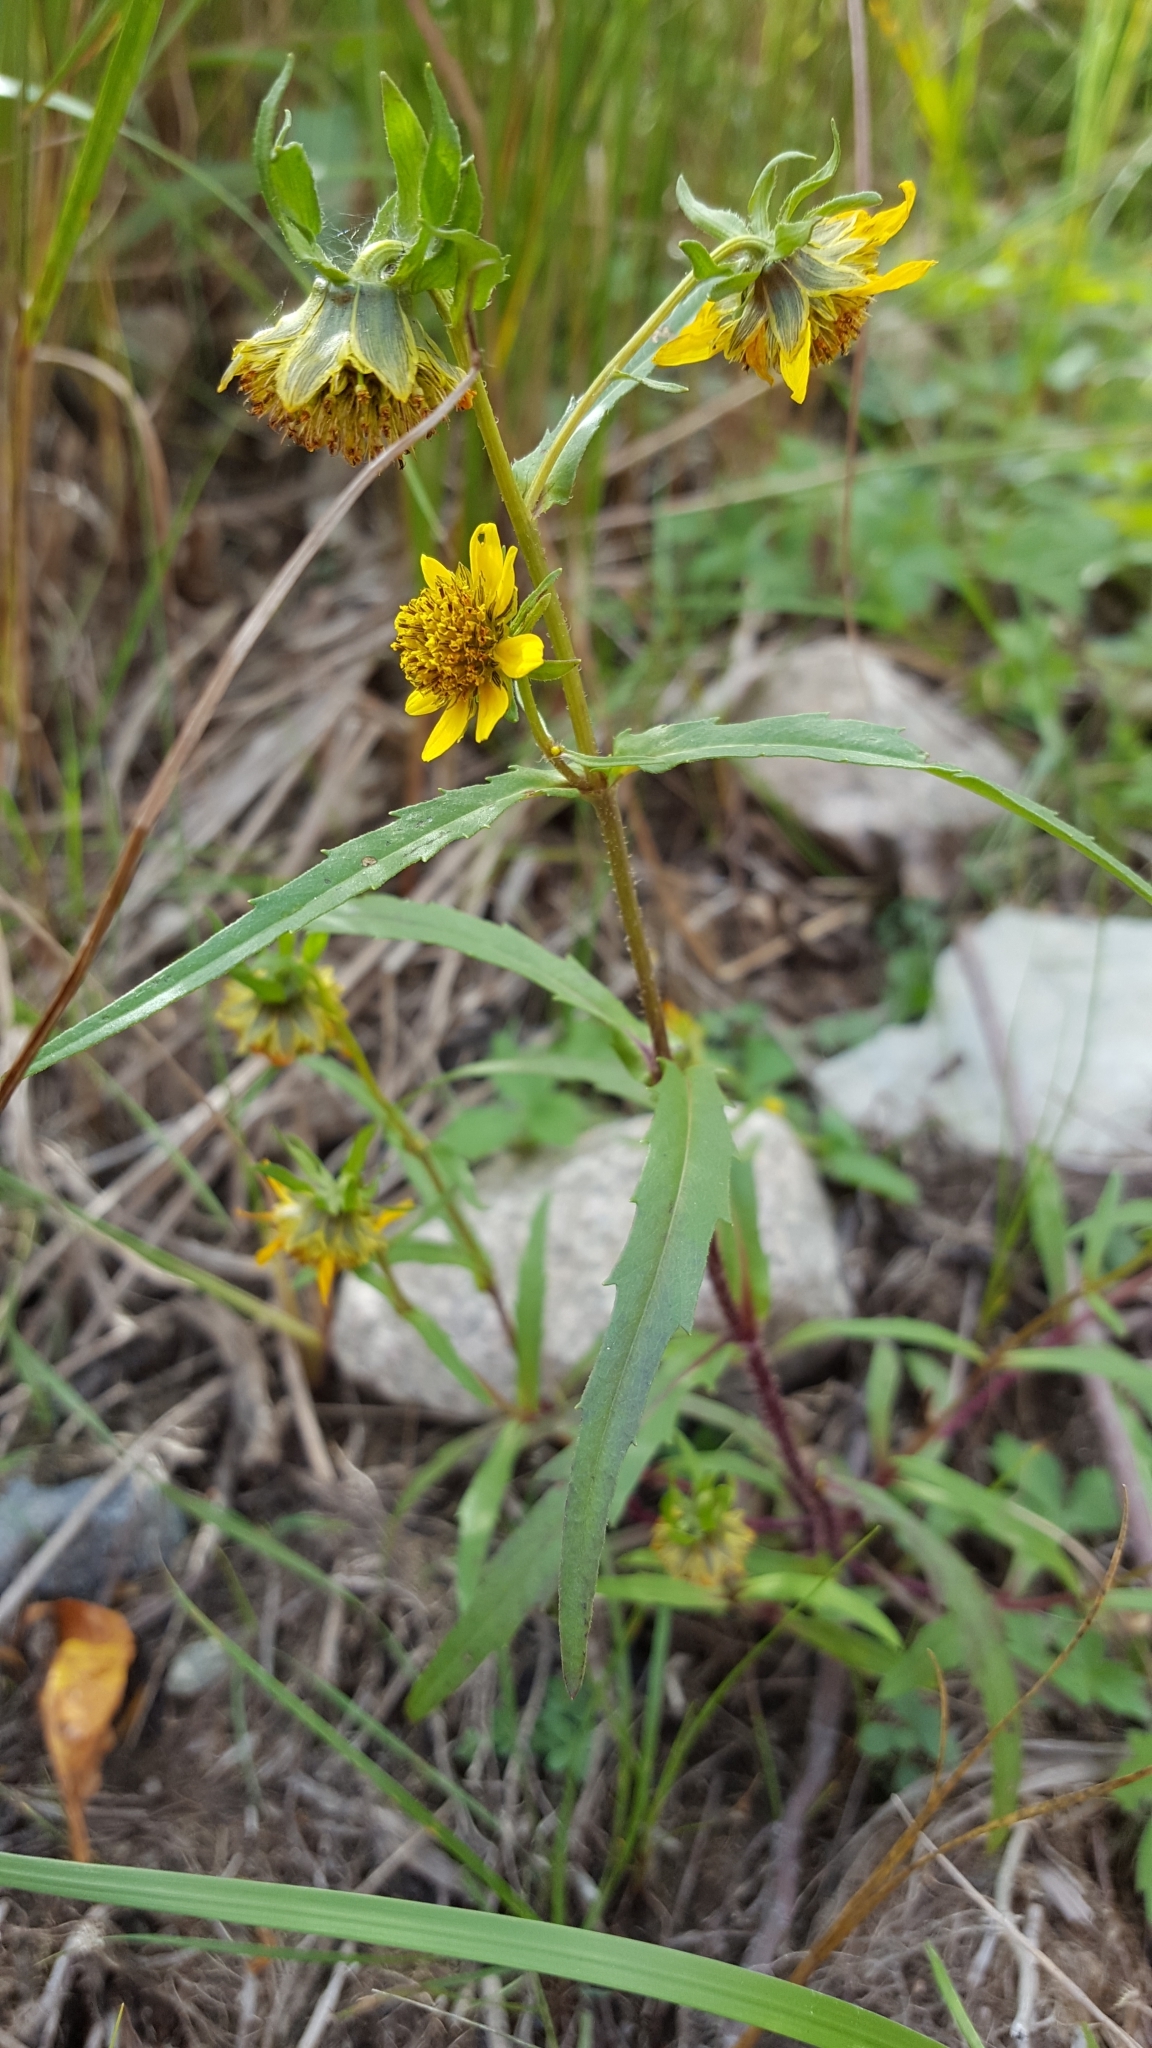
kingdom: Plantae
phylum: Tracheophyta
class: Magnoliopsida
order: Asterales
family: Asteraceae
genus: Bidens
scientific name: Bidens cernua
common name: Nodding bur-marigold
